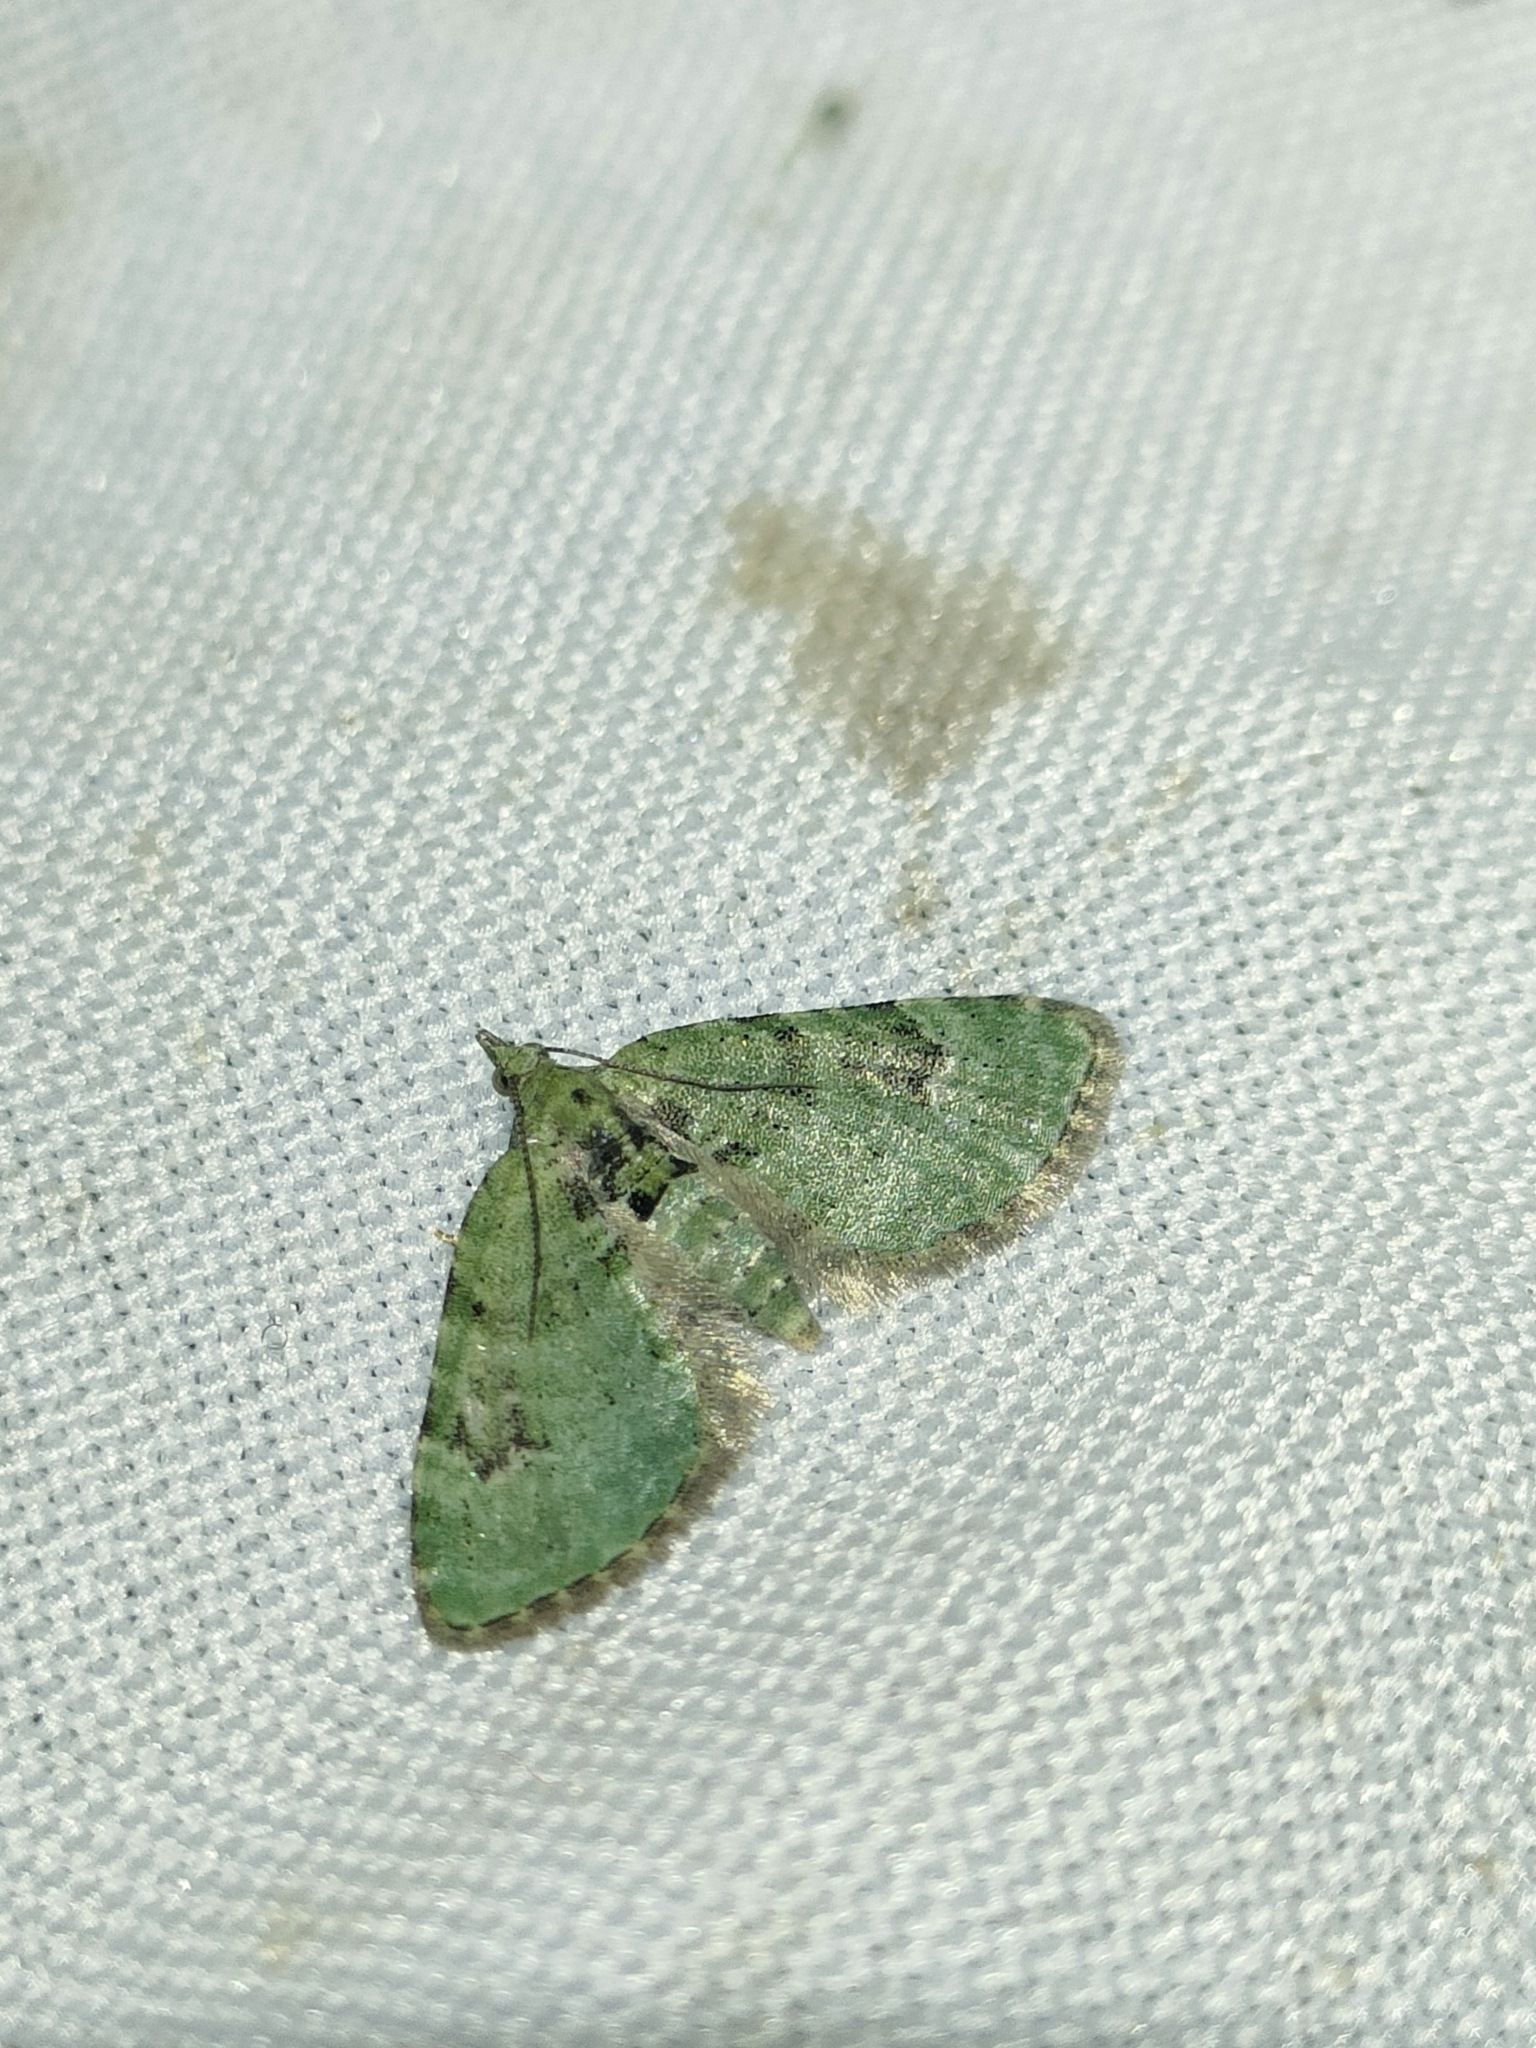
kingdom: Animalia
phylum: Arthropoda
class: Insecta
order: Lepidoptera
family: Geometridae
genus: Chloroclystis
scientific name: Chloroclystis v-ata
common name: V-pug
